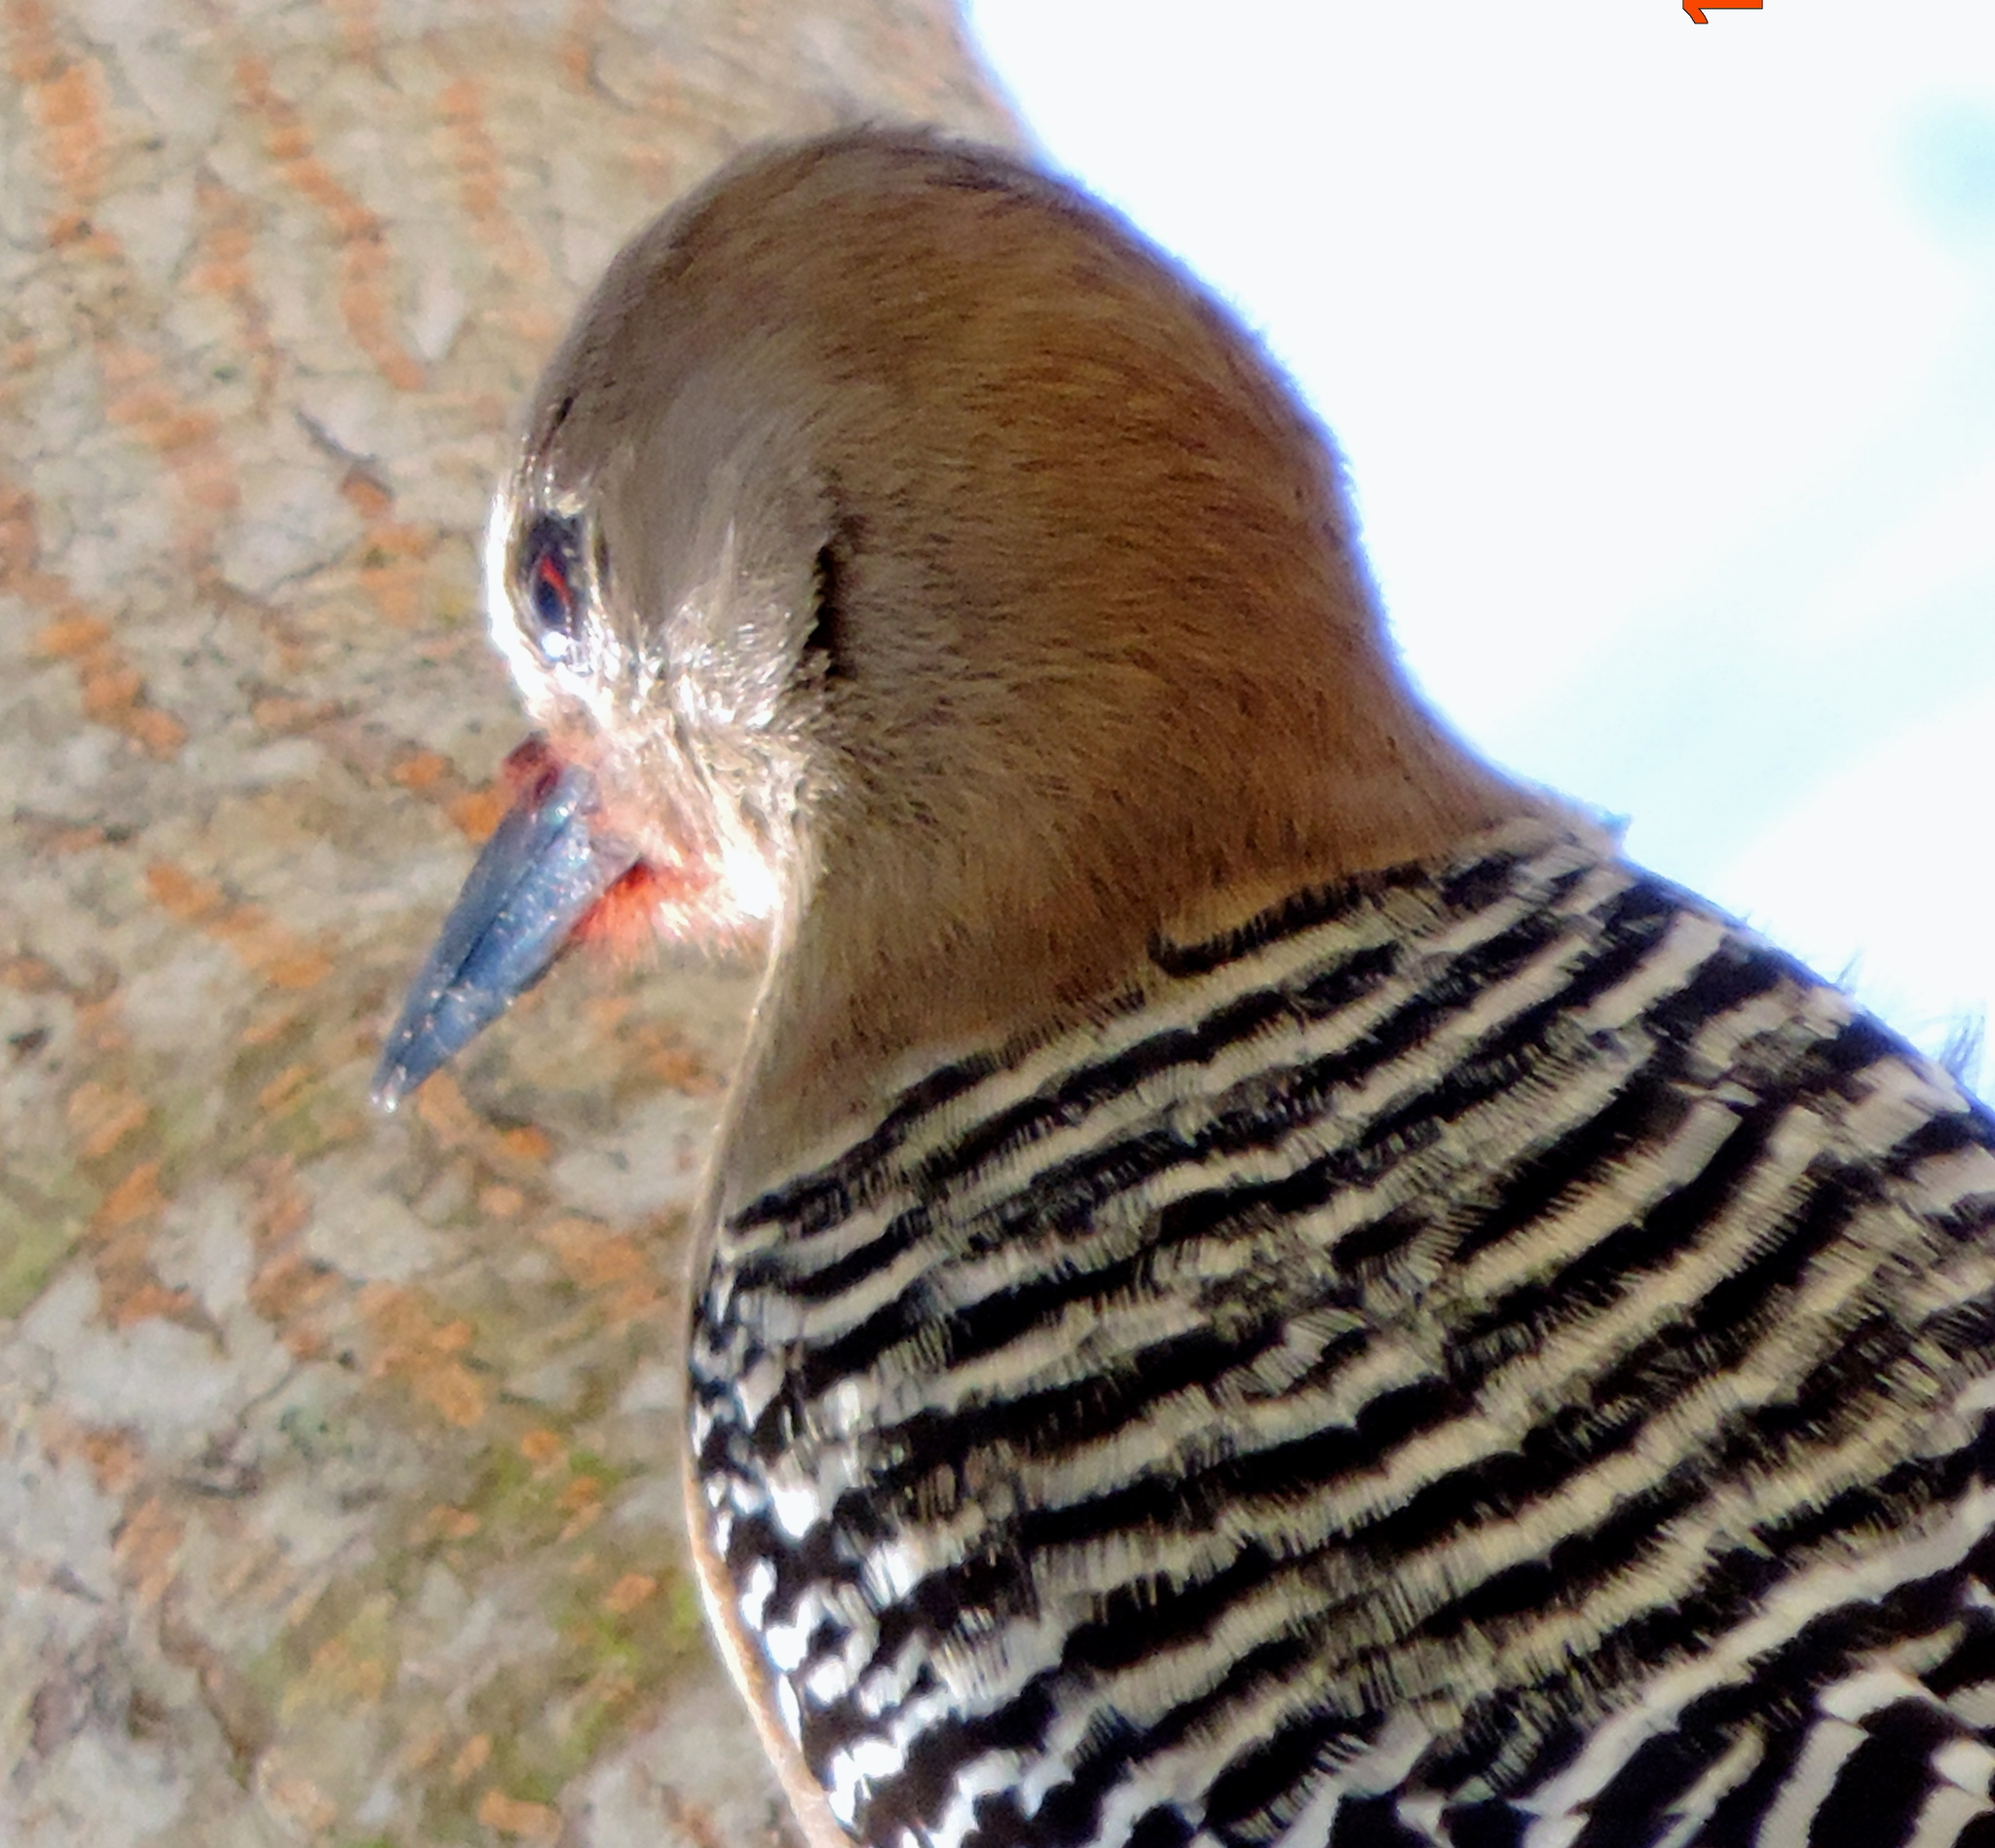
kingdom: Animalia
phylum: Chordata
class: Aves
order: Piciformes
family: Picidae
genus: Melanerpes
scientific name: Melanerpes uropygialis
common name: Gila woodpecker
